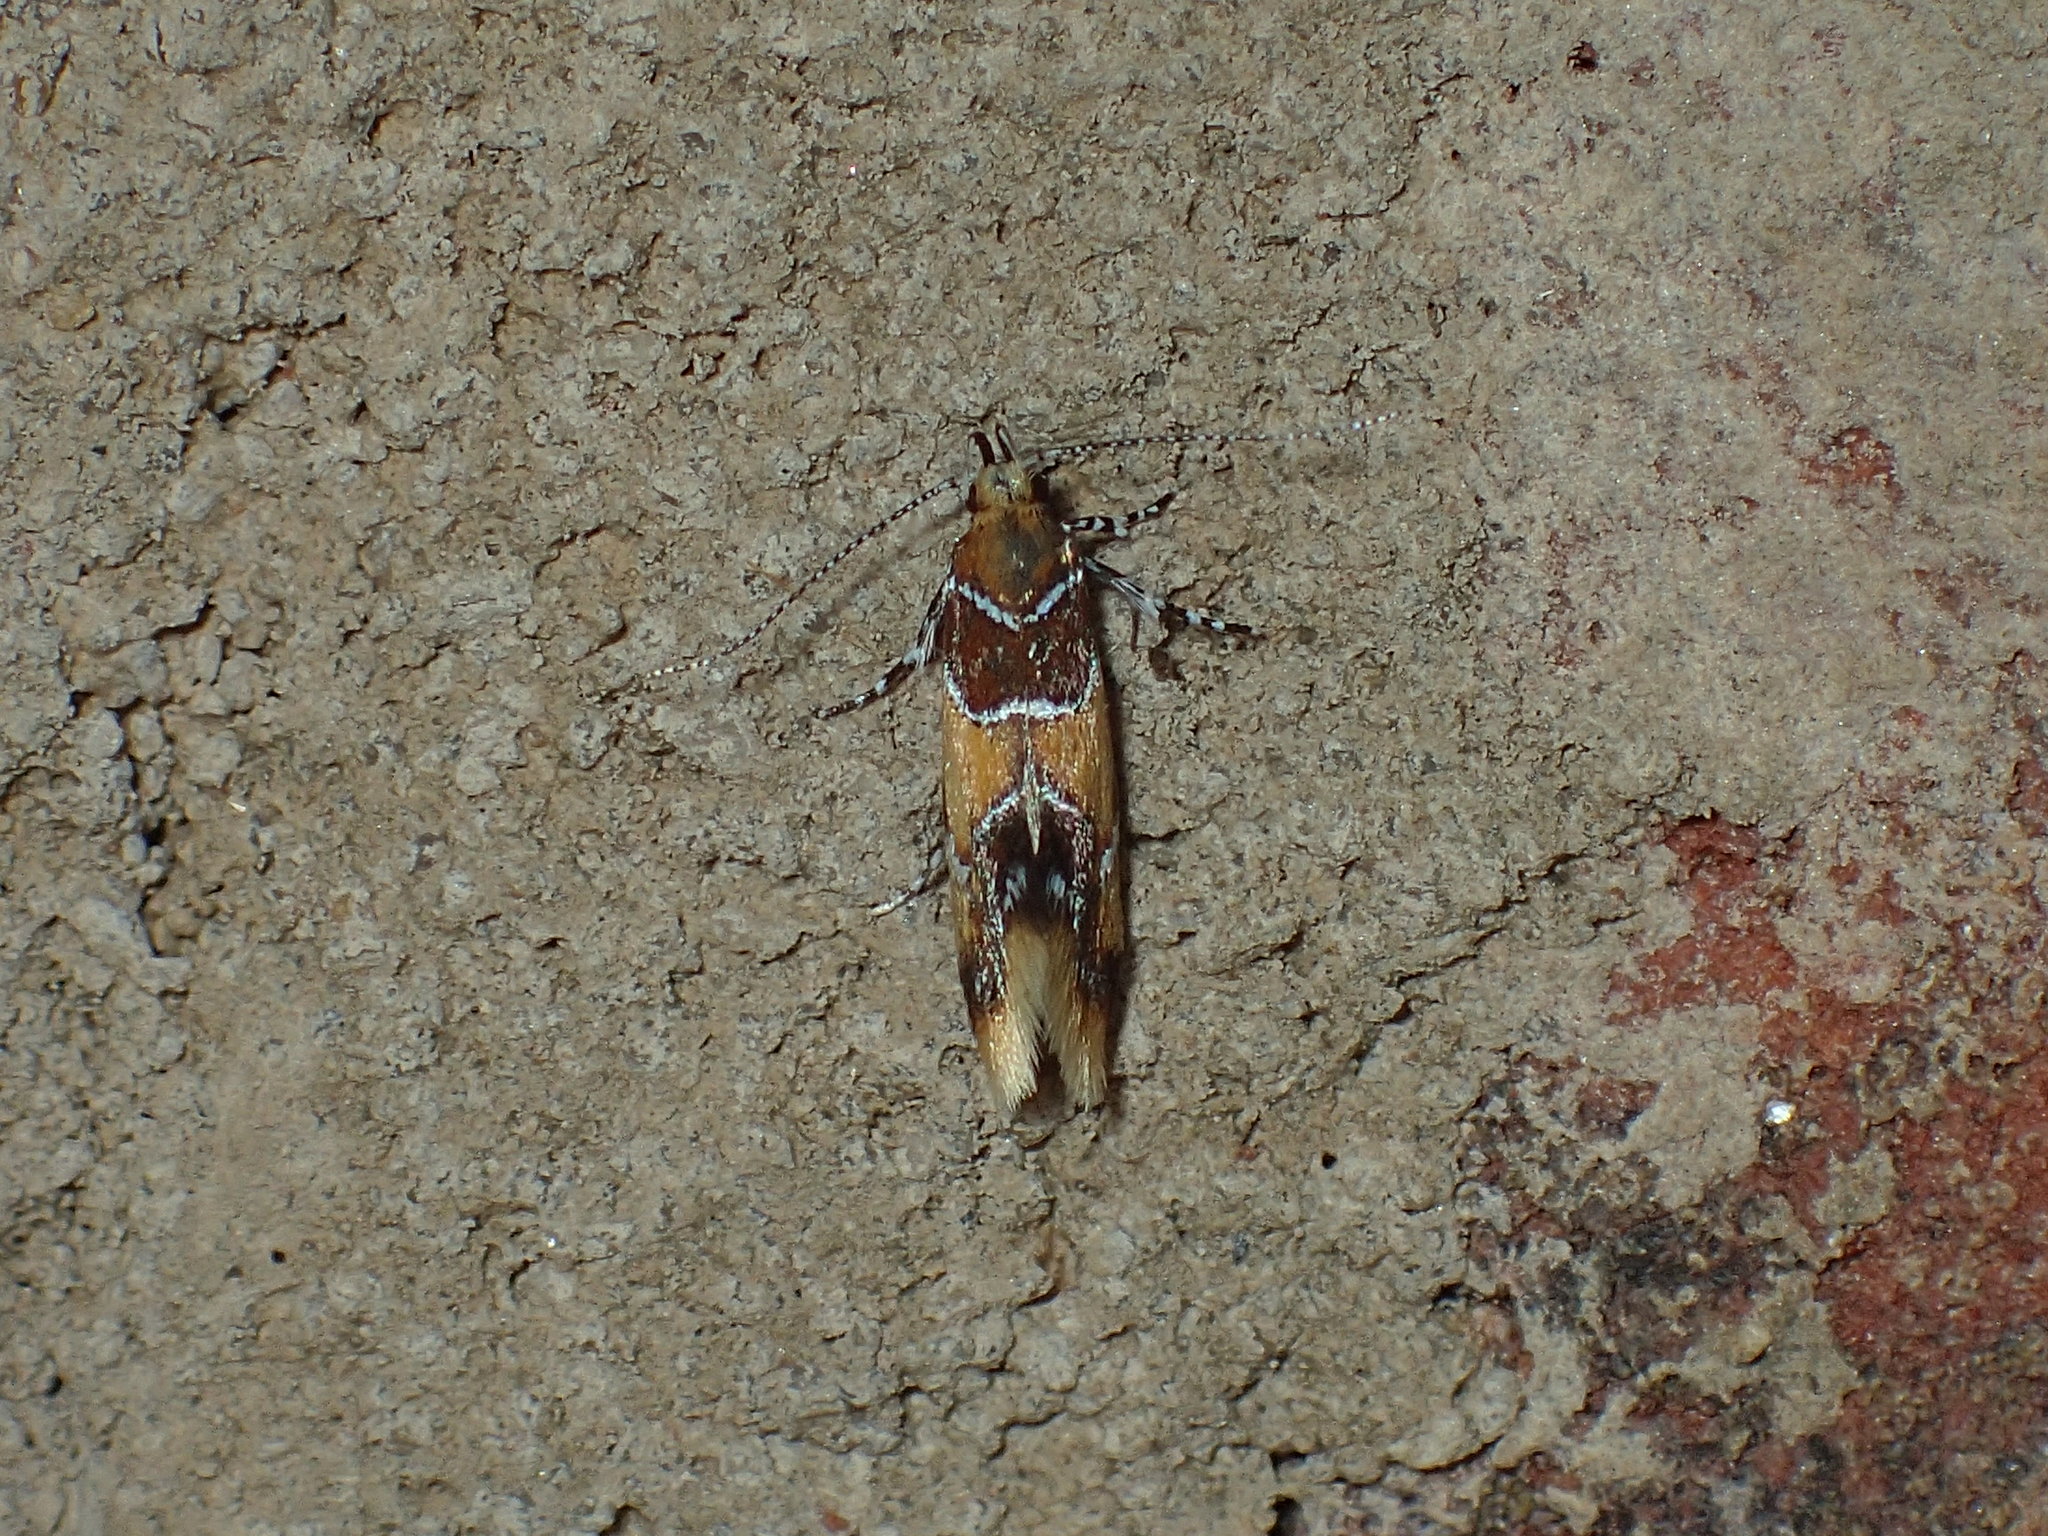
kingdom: Animalia
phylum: Arthropoda
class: Insecta
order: Lepidoptera
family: Oecophoridae
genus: Callima
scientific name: Callima argenticinctella
